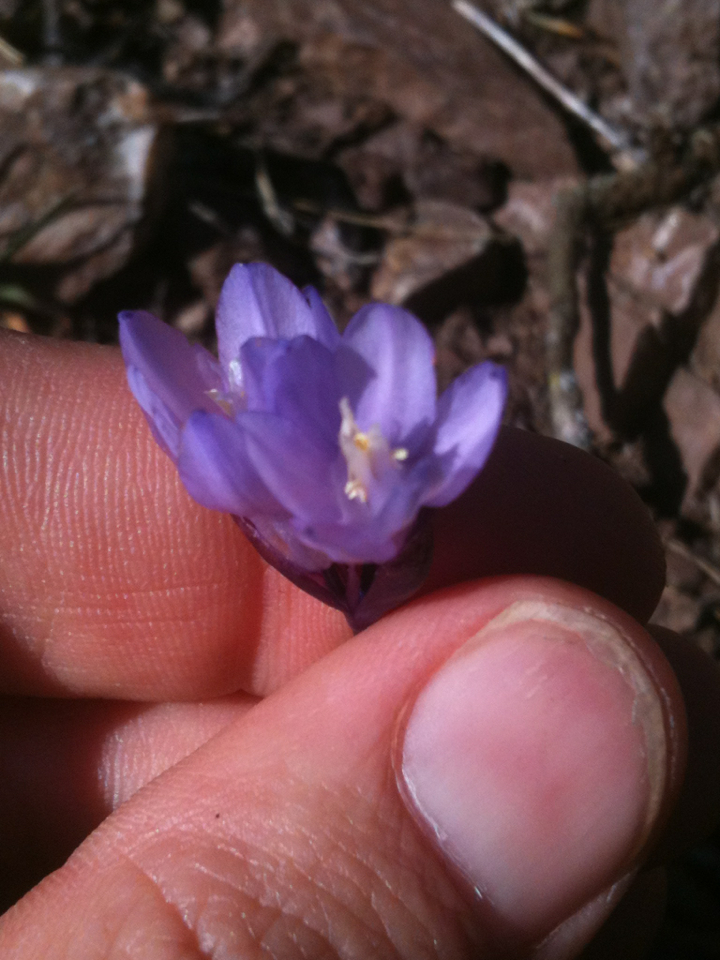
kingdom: Plantae
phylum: Tracheophyta
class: Liliopsida
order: Asparagales
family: Asparagaceae
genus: Dipterostemon
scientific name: Dipterostemon capitatus
